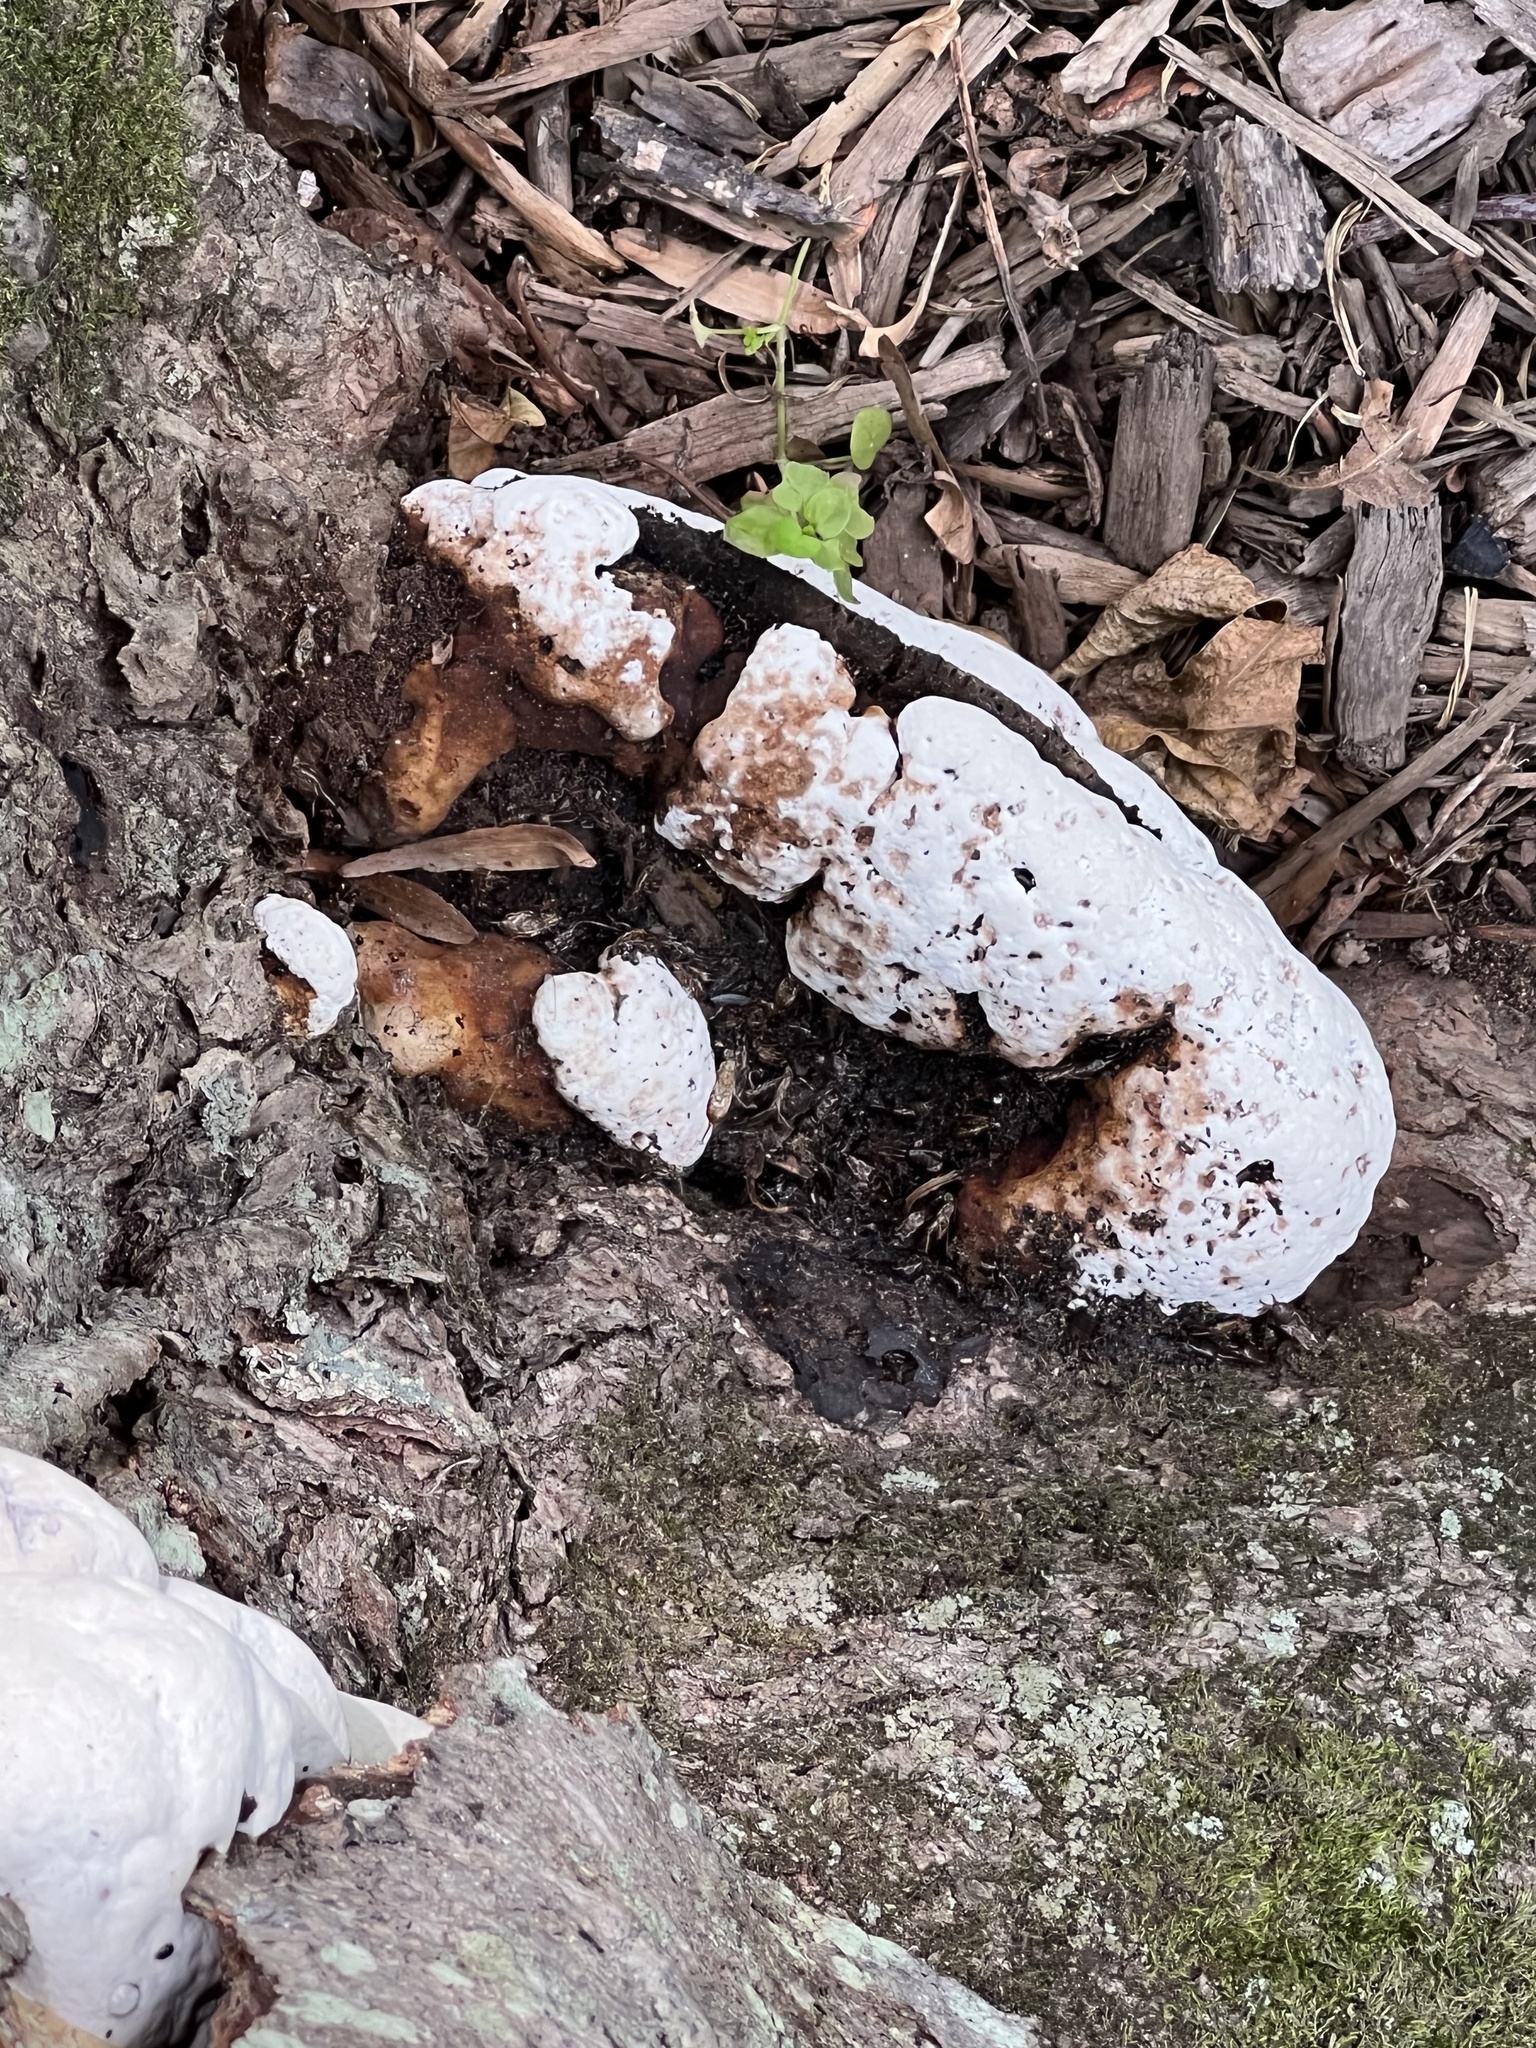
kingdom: Fungi
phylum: Basidiomycota
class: Agaricomycetes
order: Polyporales
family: Podoscyphaceae
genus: Abortiporus
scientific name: Abortiporus biennis
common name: Blushing rosette
